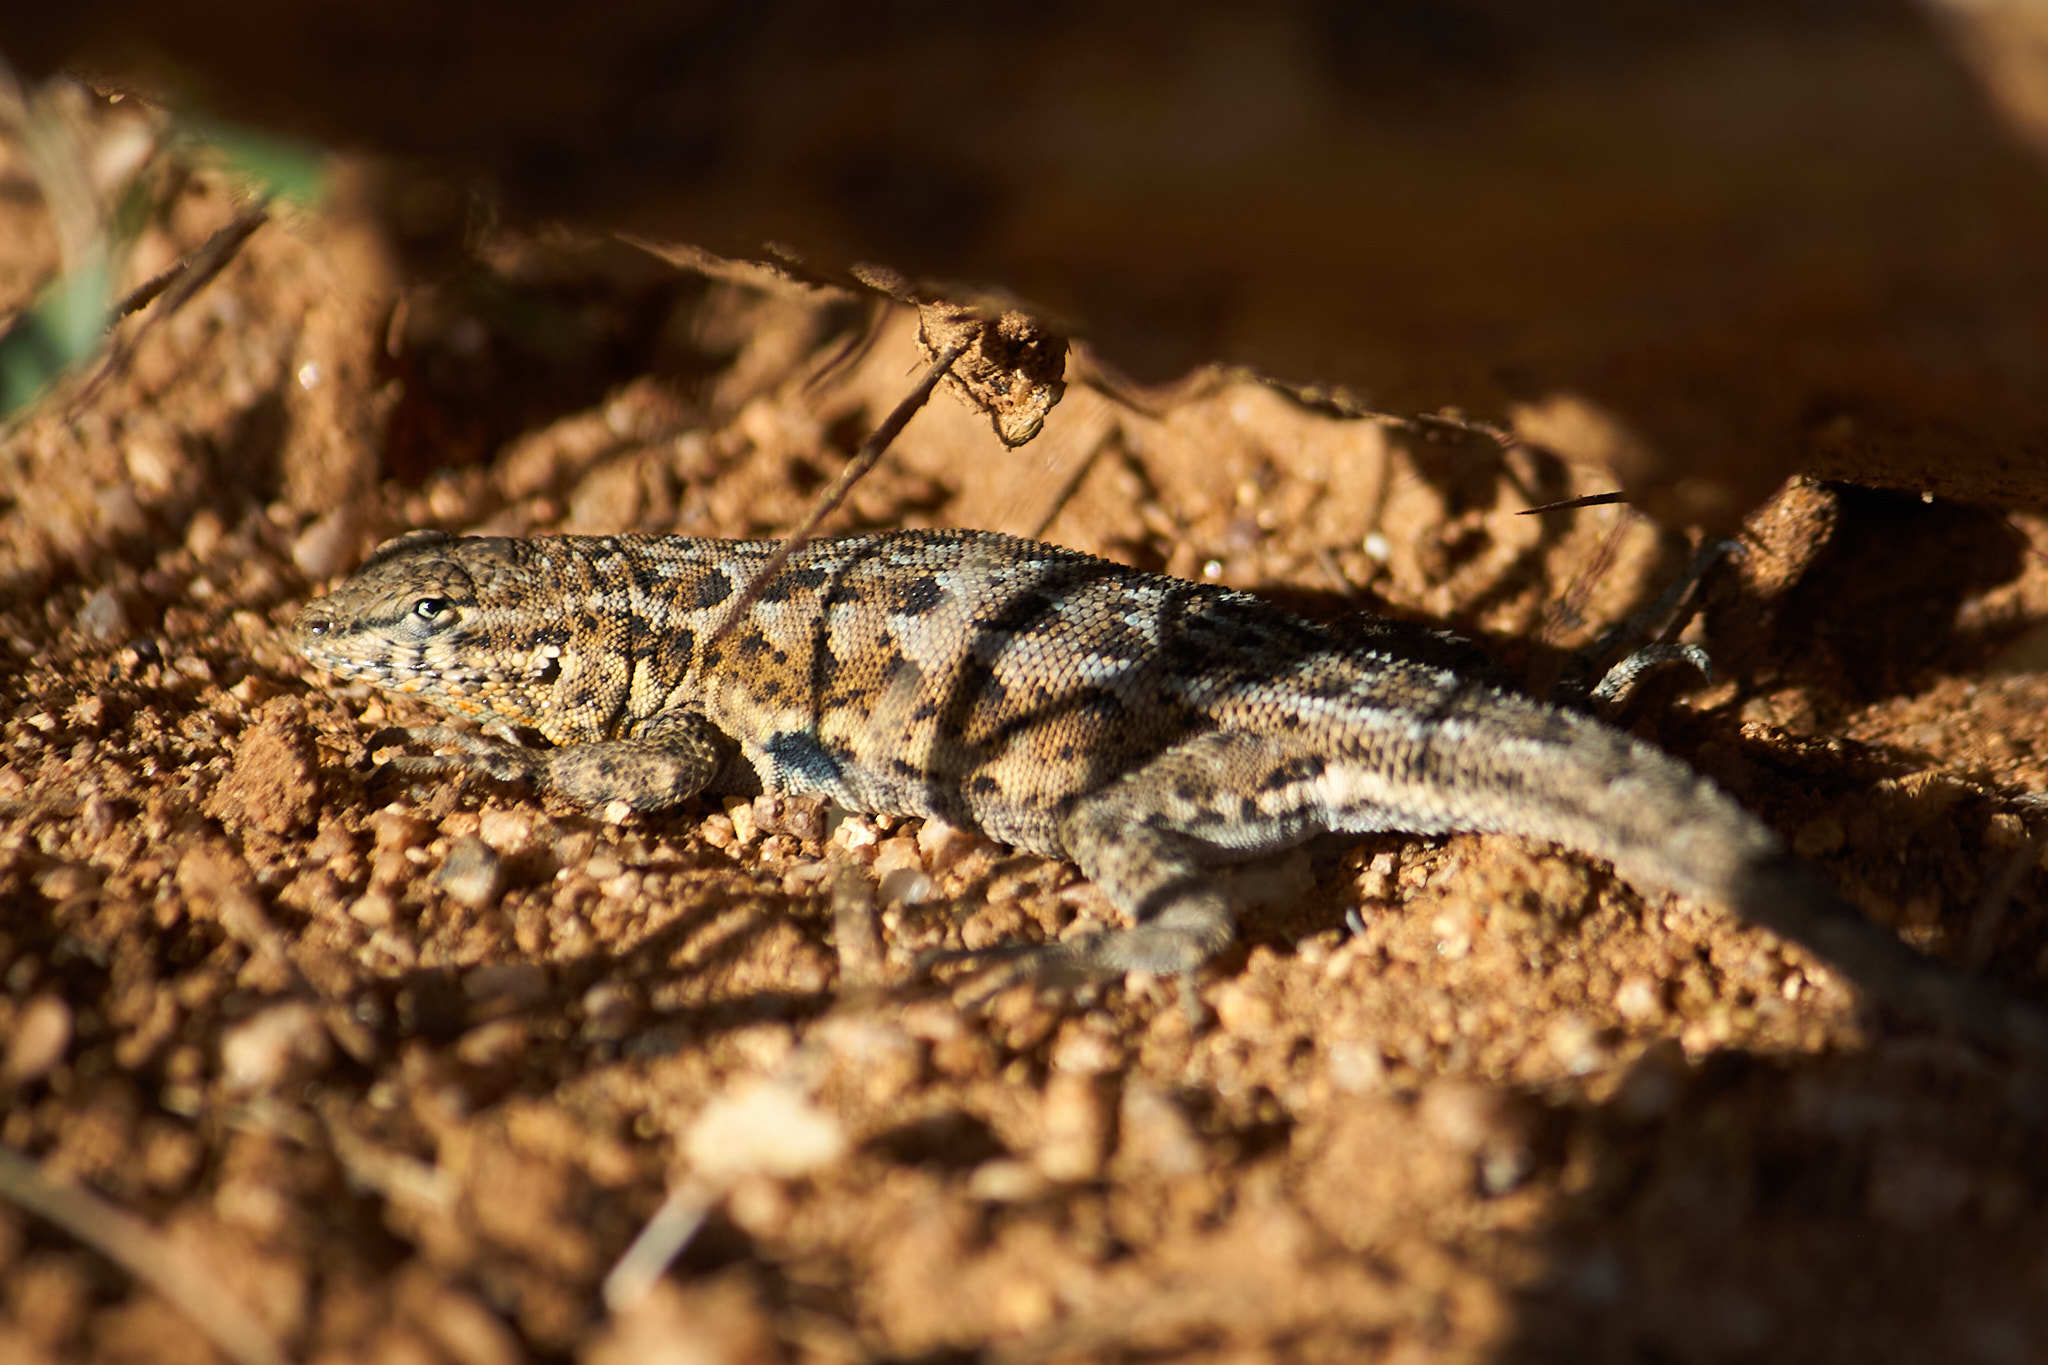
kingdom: Animalia
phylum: Chordata
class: Squamata
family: Phrynosomatidae
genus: Uta
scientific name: Uta stansburiana
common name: Side-blotched lizard
